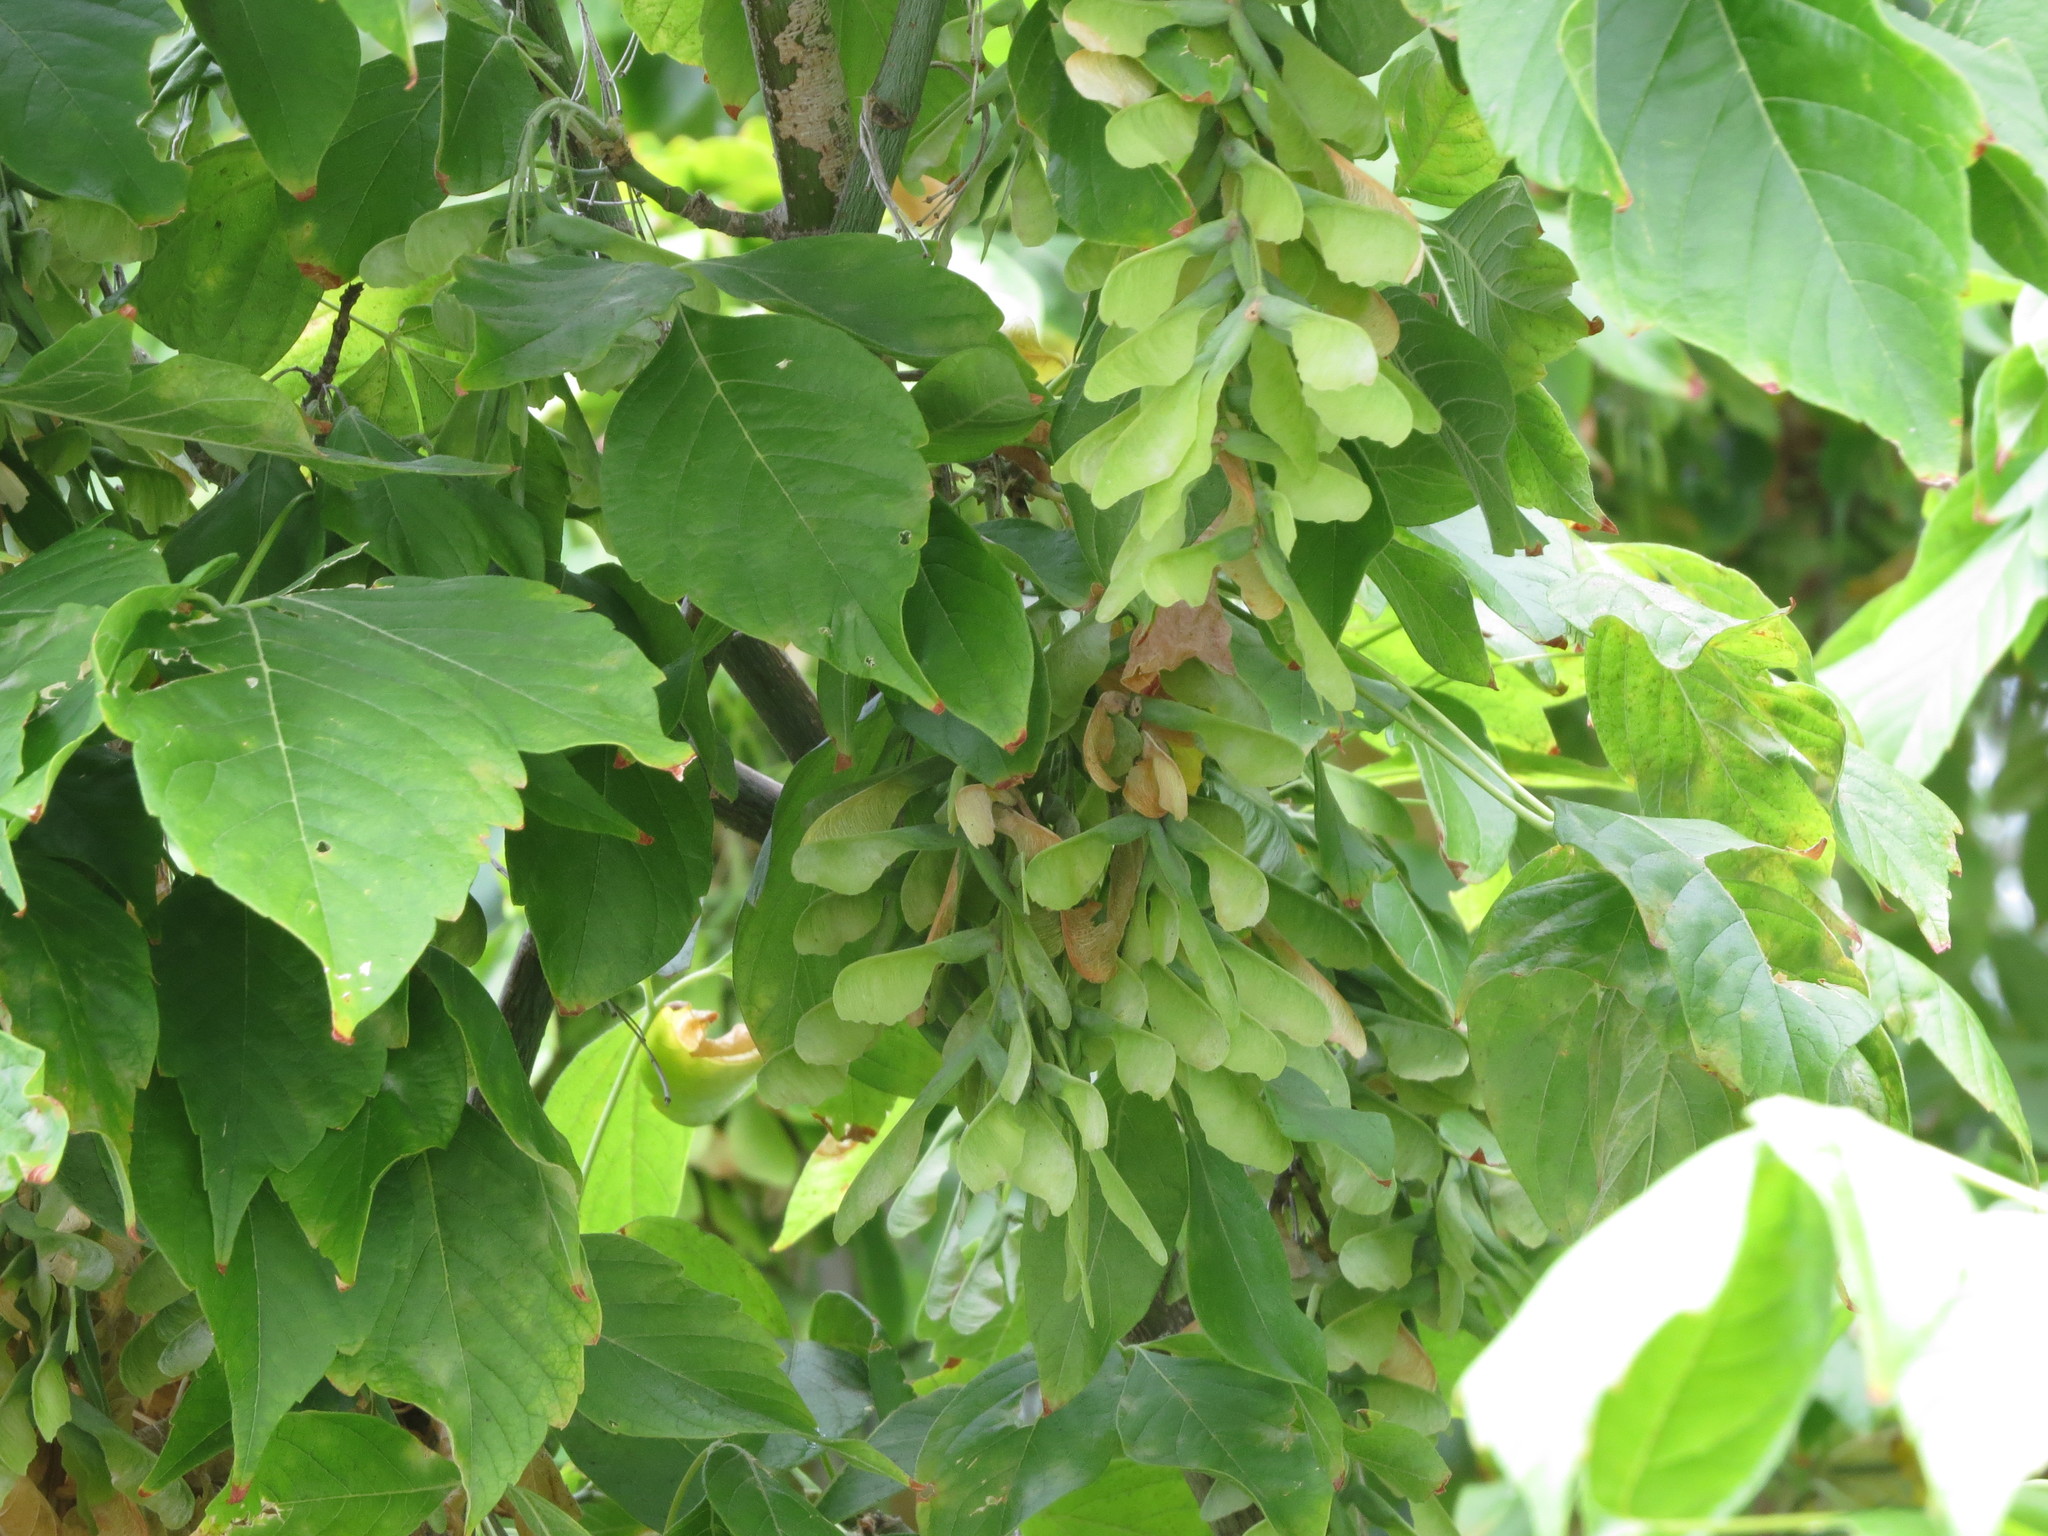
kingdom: Plantae
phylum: Tracheophyta
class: Magnoliopsida
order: Sapindales
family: Sapindaceae
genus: Acer
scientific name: Acer negundo
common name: Ashleaf maple
